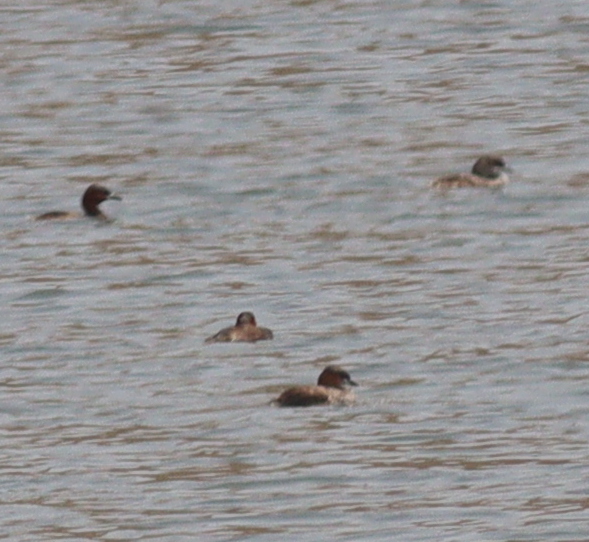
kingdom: Animalia
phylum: Chordata
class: Aves
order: Podicipediformes
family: Podicipedidae
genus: Tachybaptus
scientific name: Tachybaptus ruficollis
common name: Little grebe
